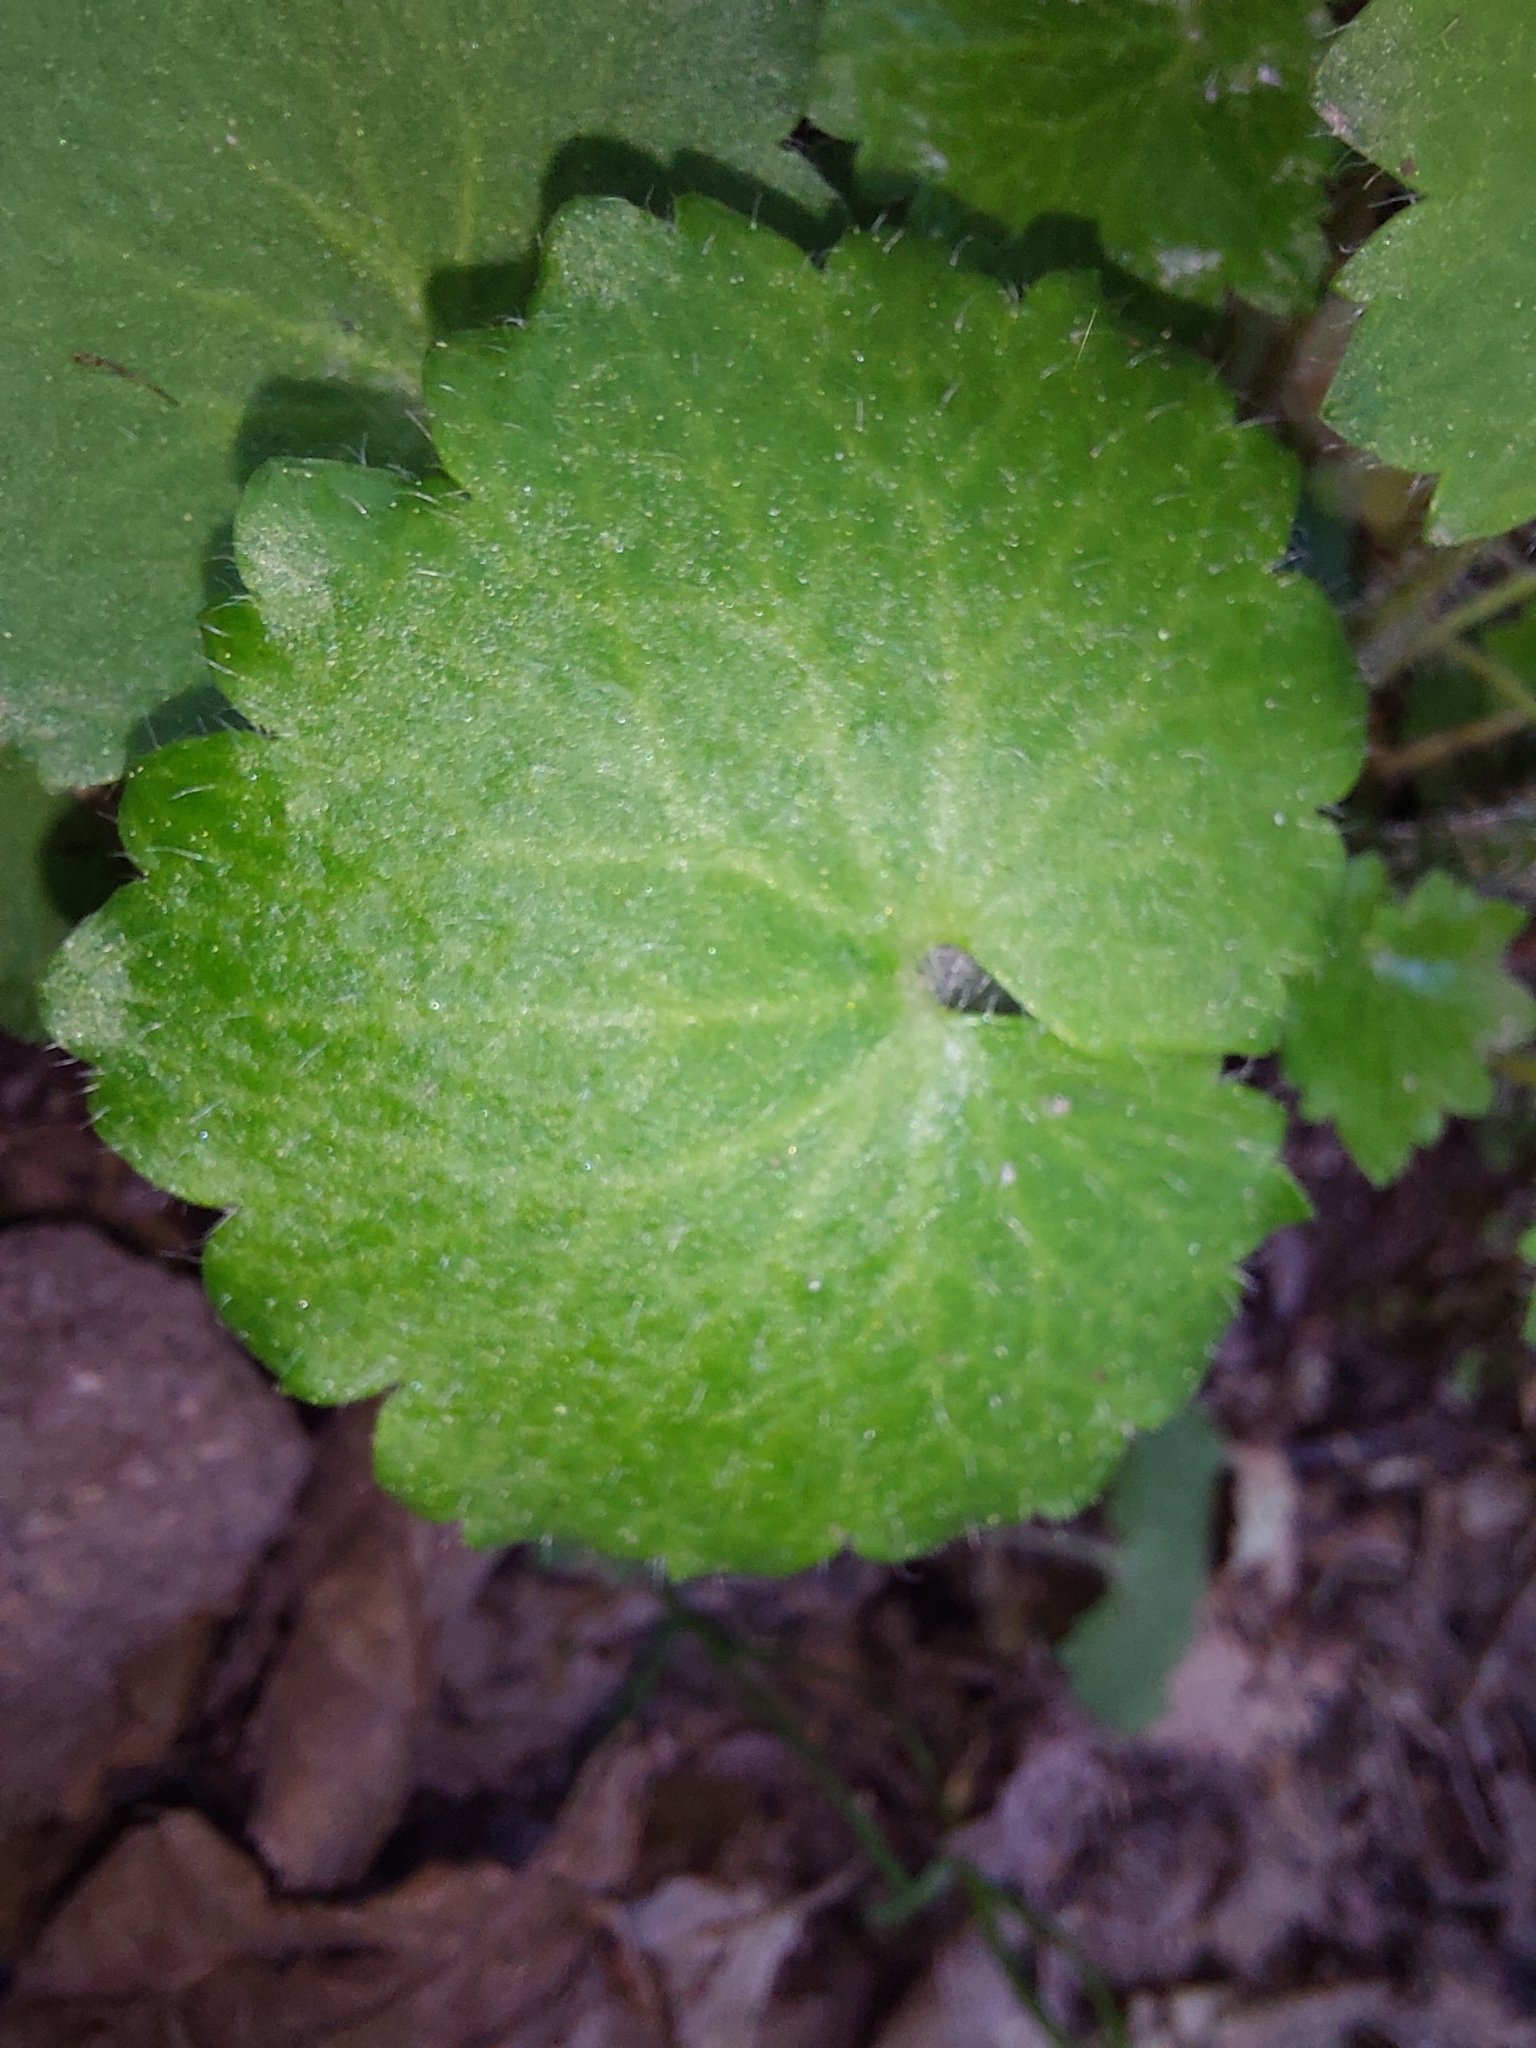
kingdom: Plantae
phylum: Tracheophyta
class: Magnoliopsida
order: Saxifragales
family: Saxifragaceae
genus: Saxifraga
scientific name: Saxifraga rotundifolia
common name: Round-leaved saxifrage
